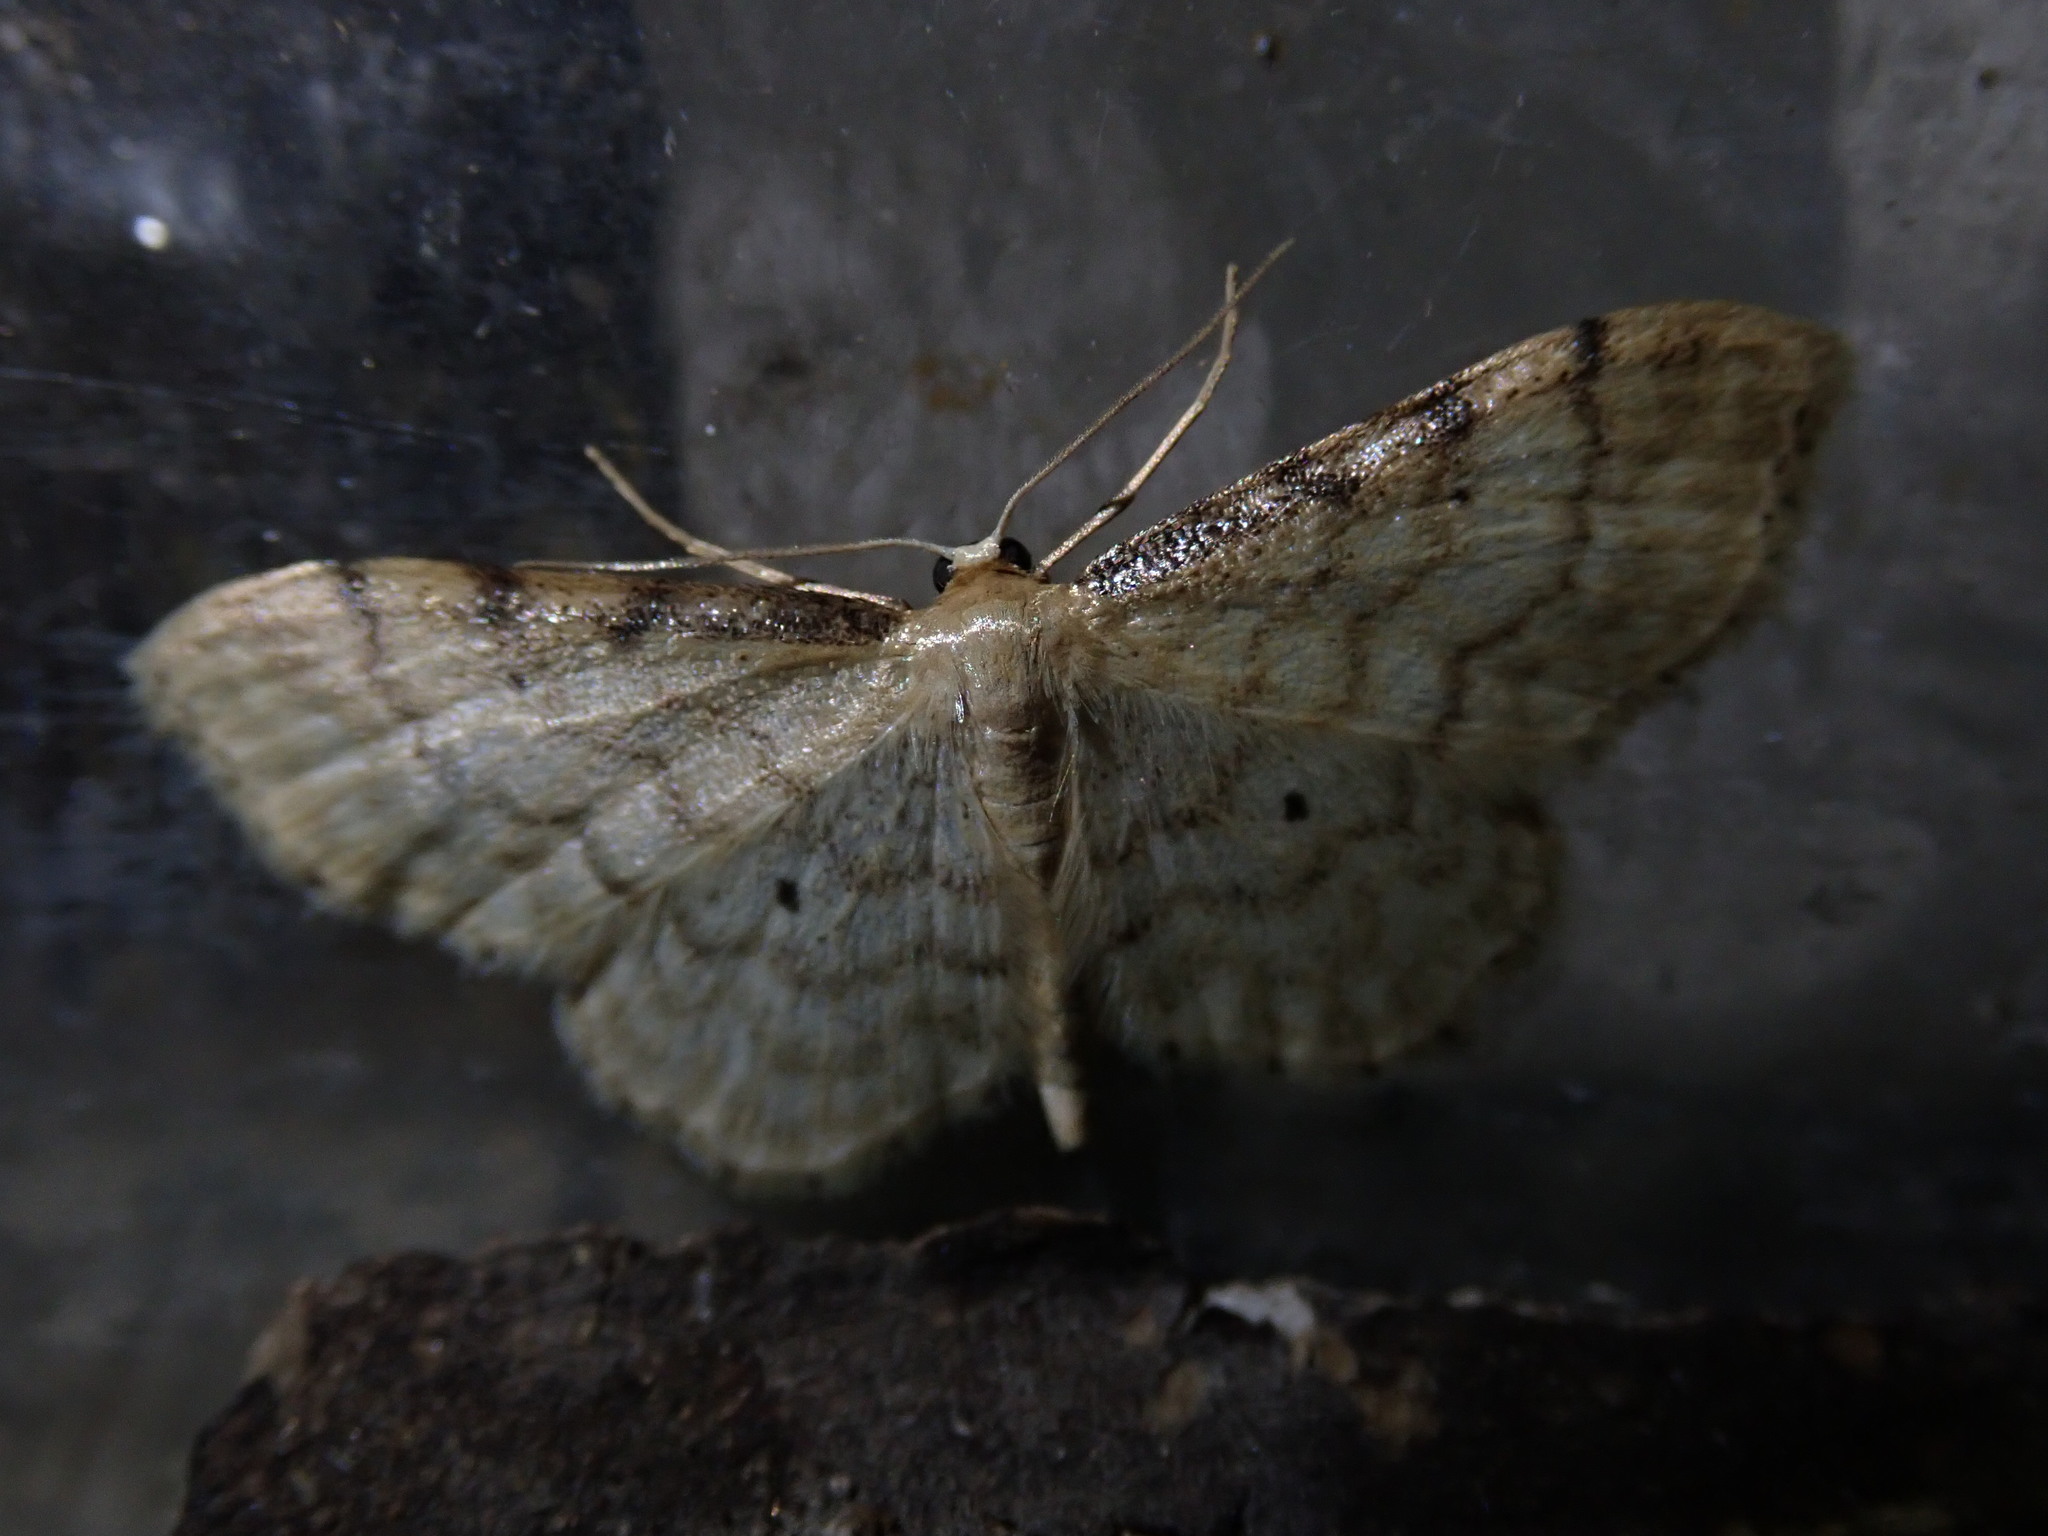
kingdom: Animalia
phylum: Arthropoda
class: Insecta
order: Lepidoptera
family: Geometridae
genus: Idaea
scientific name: Idaea fuscovenosa
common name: Dwarf cream wave
